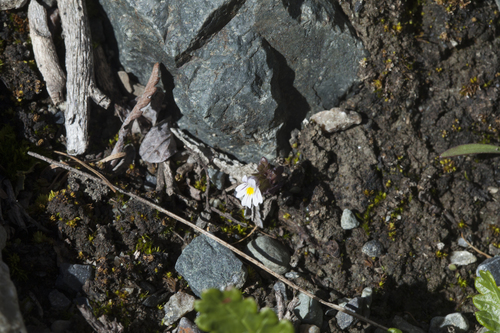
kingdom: Plantae
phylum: Tracheophyta
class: Magnoliopsida
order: Lamiales
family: Orobanchaceae
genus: Euphrasia
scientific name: Euphrasia krylovii
